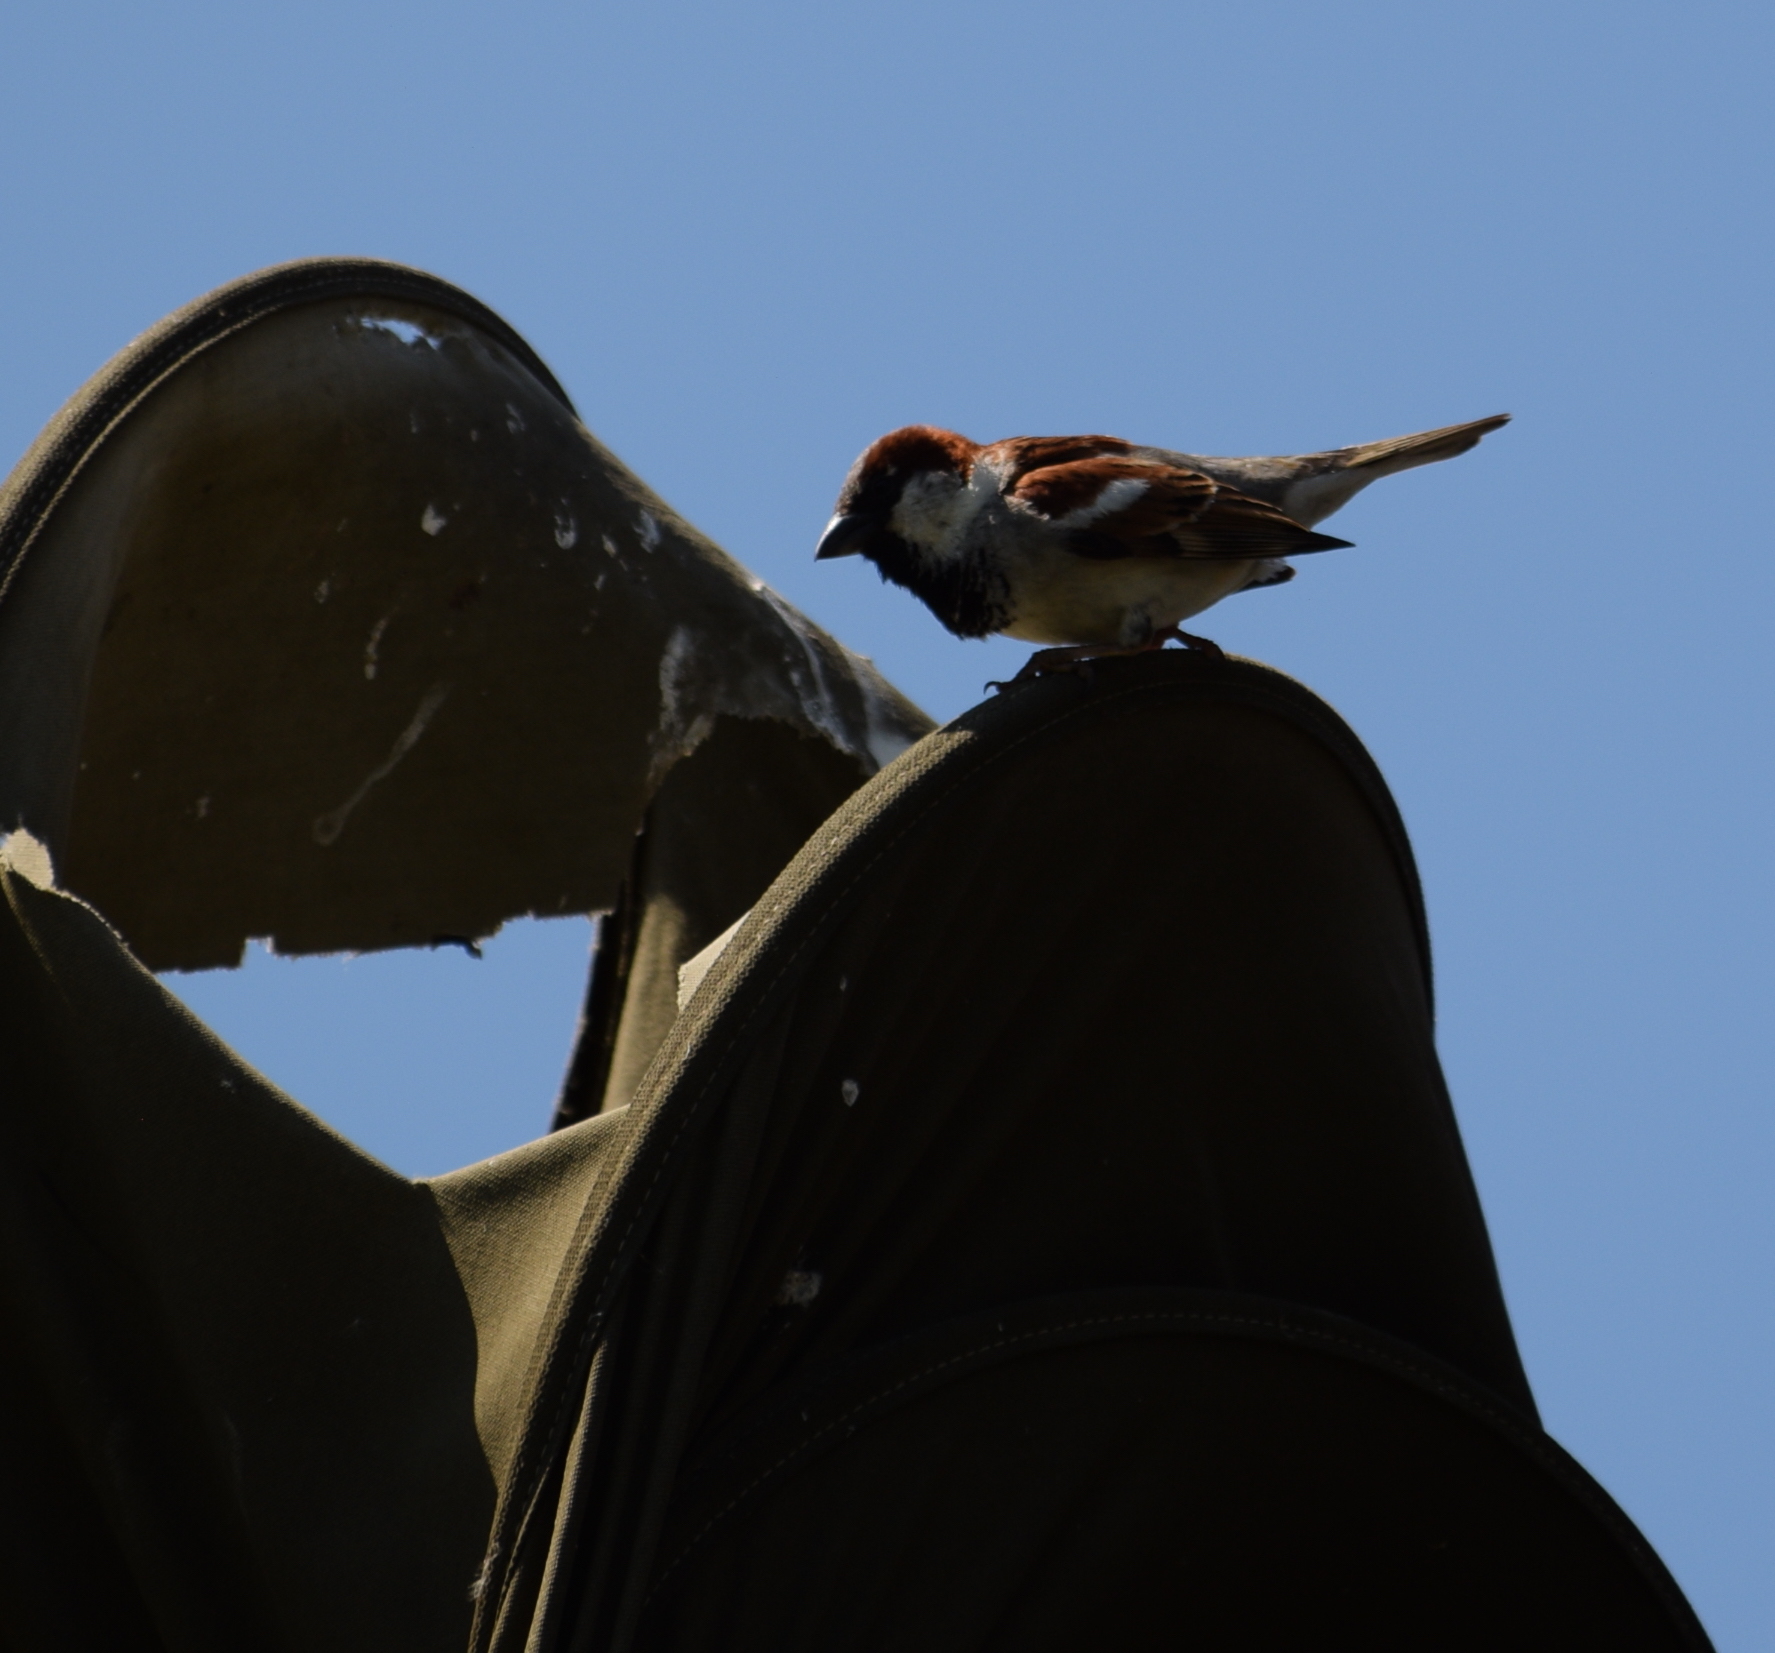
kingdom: Animalia
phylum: Chordata
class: Aves
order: Passeriformes
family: Passeridae
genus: Passer
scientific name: Passer domesticus
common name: House sparrow
